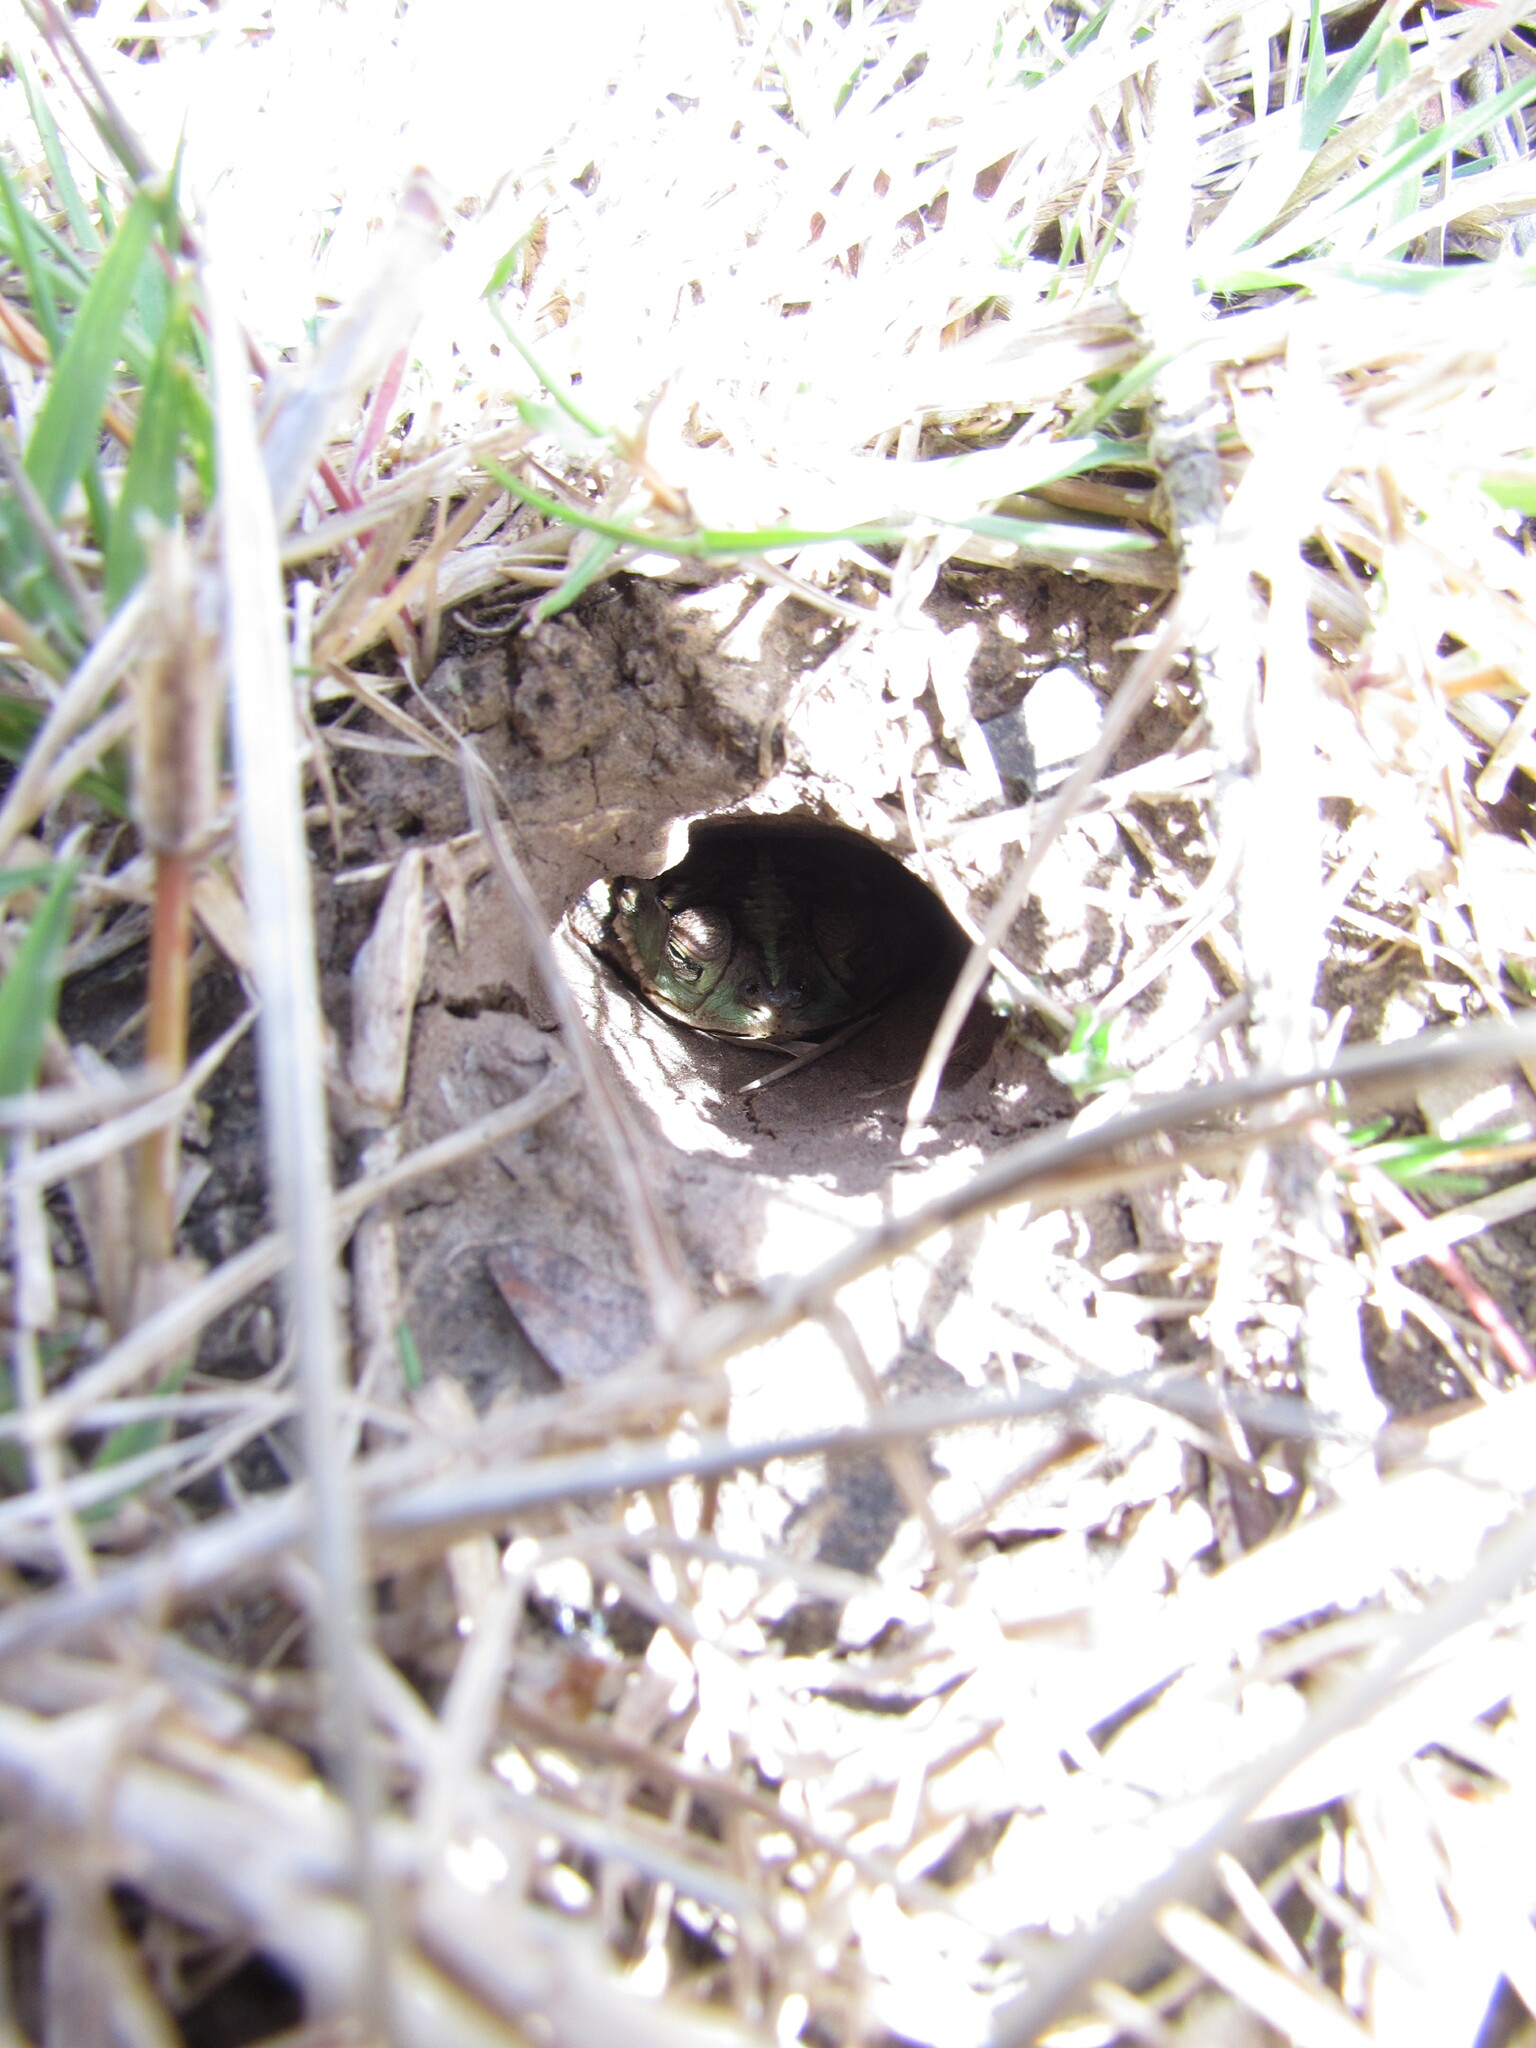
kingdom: Animalia
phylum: Chordata
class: Amphibia
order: Anura
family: Bufonidae
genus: Rhinella
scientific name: Rhinella dorbignyi
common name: D´orbigny’s toad
